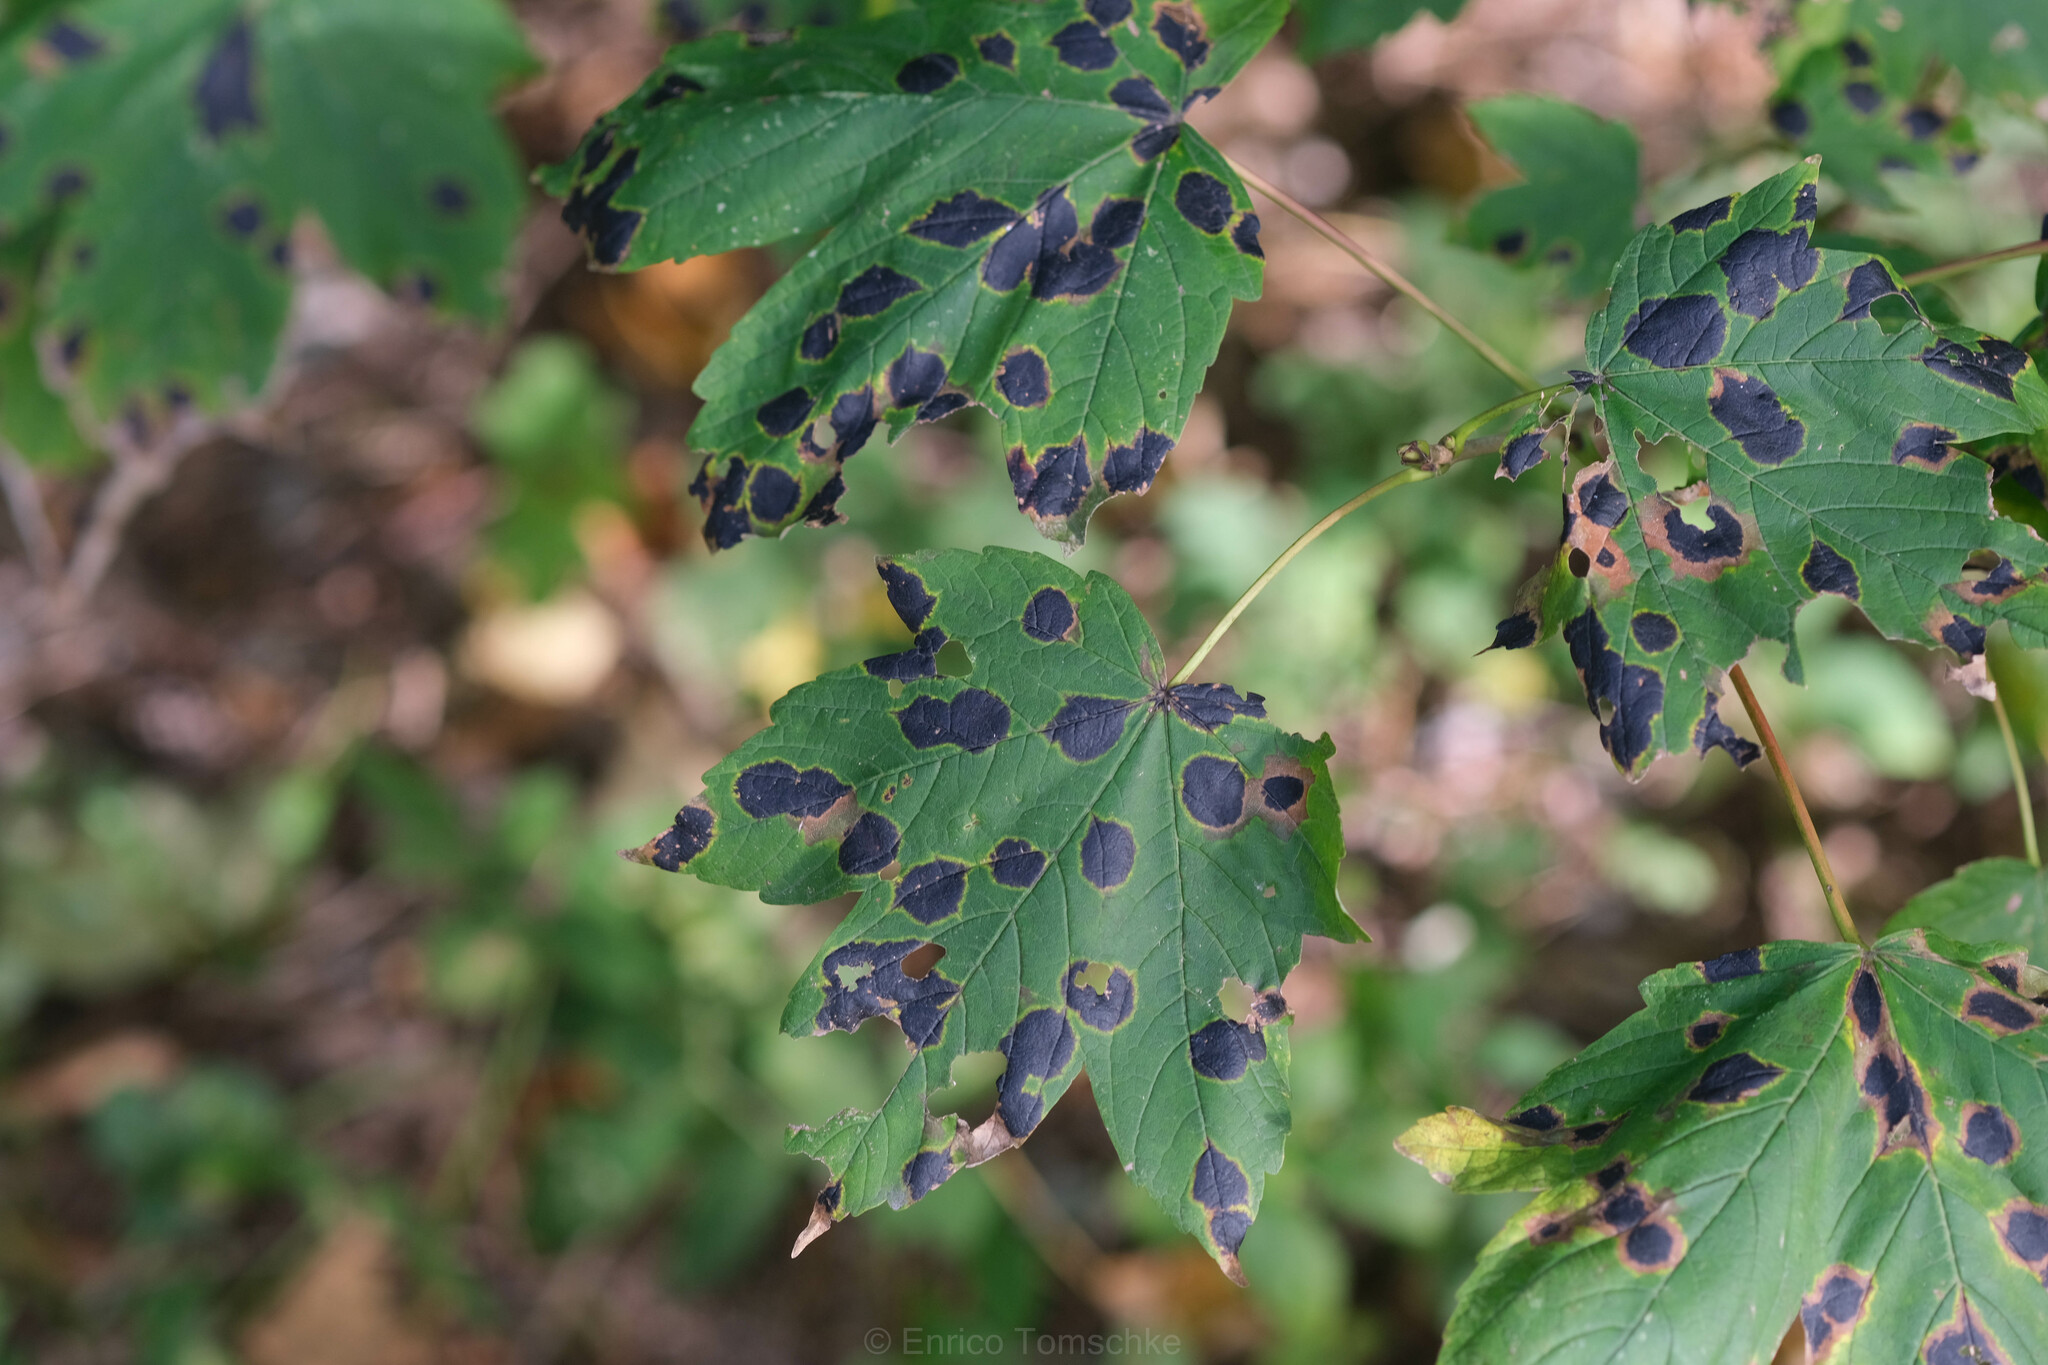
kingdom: Fungi
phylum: Ascomycota
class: Leotiomycetes
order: Rhytismatales
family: Rhytismataceae
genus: Rhytisma
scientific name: Rhytisma acerinum
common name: European tar spot
